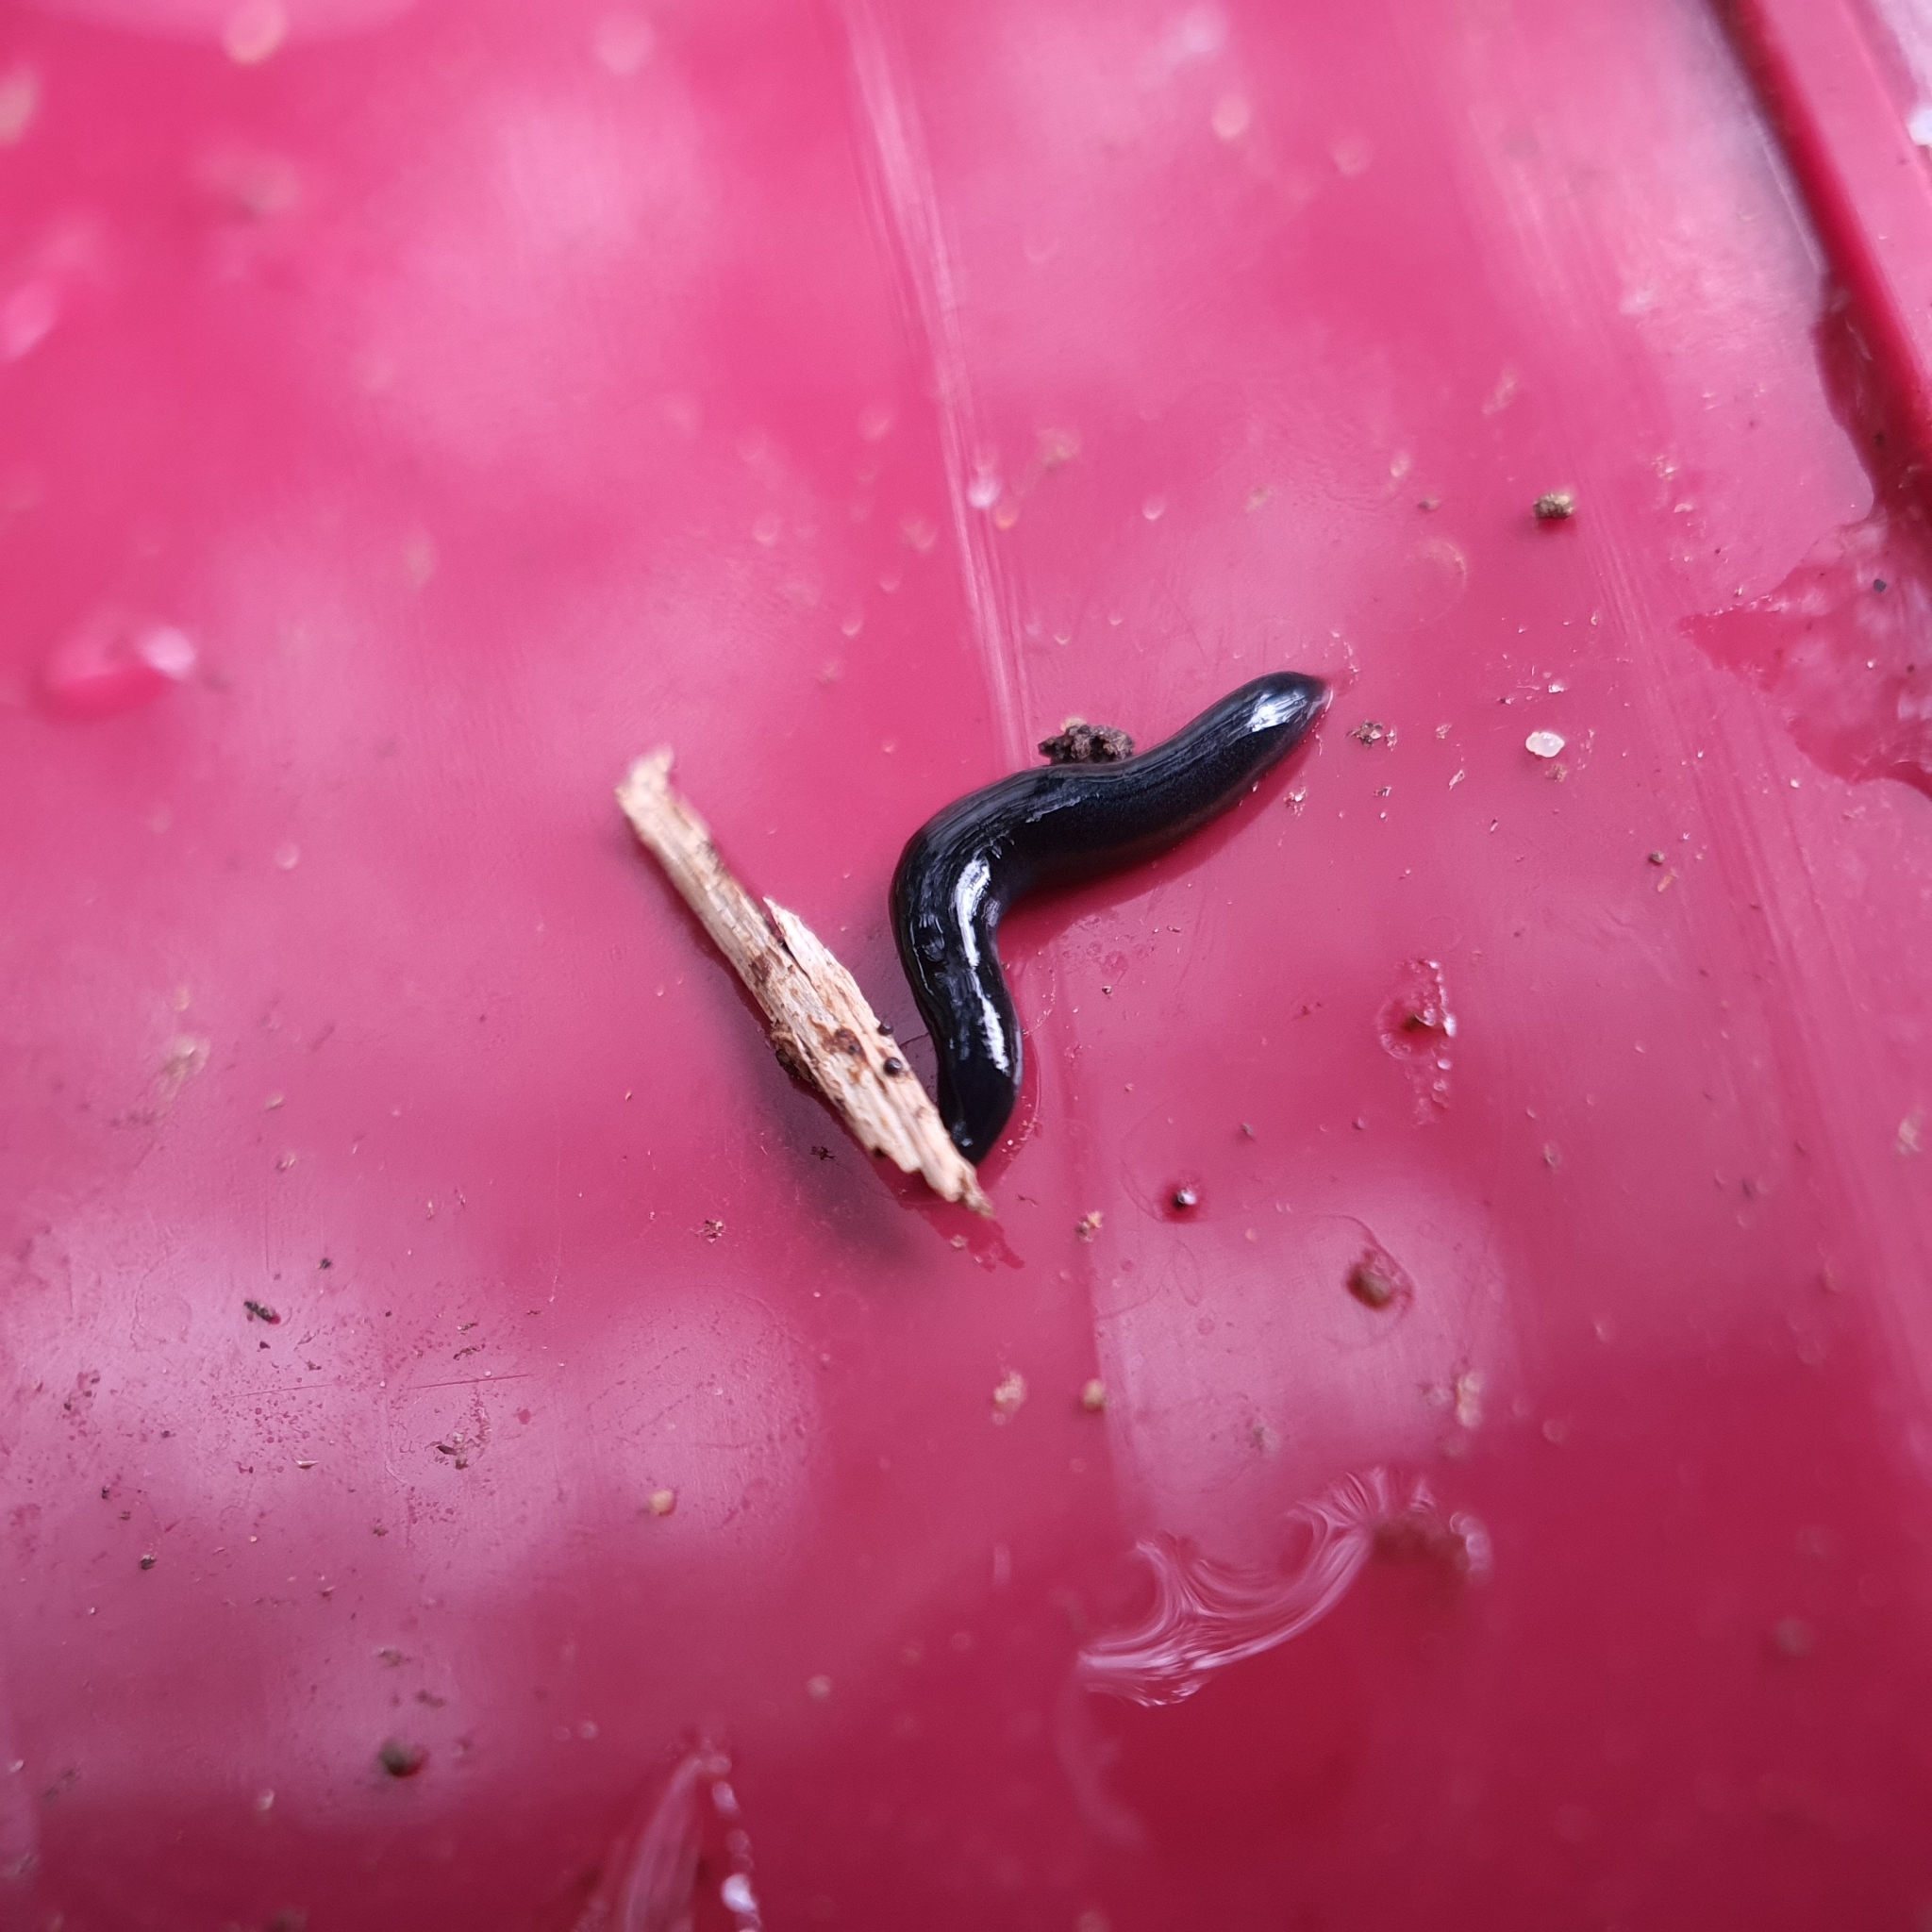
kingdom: Animalia
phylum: Platyhelminthes
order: Tricladida
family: Geoplanidae
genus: Parakontikia
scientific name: Parakontikia ventrolineata
